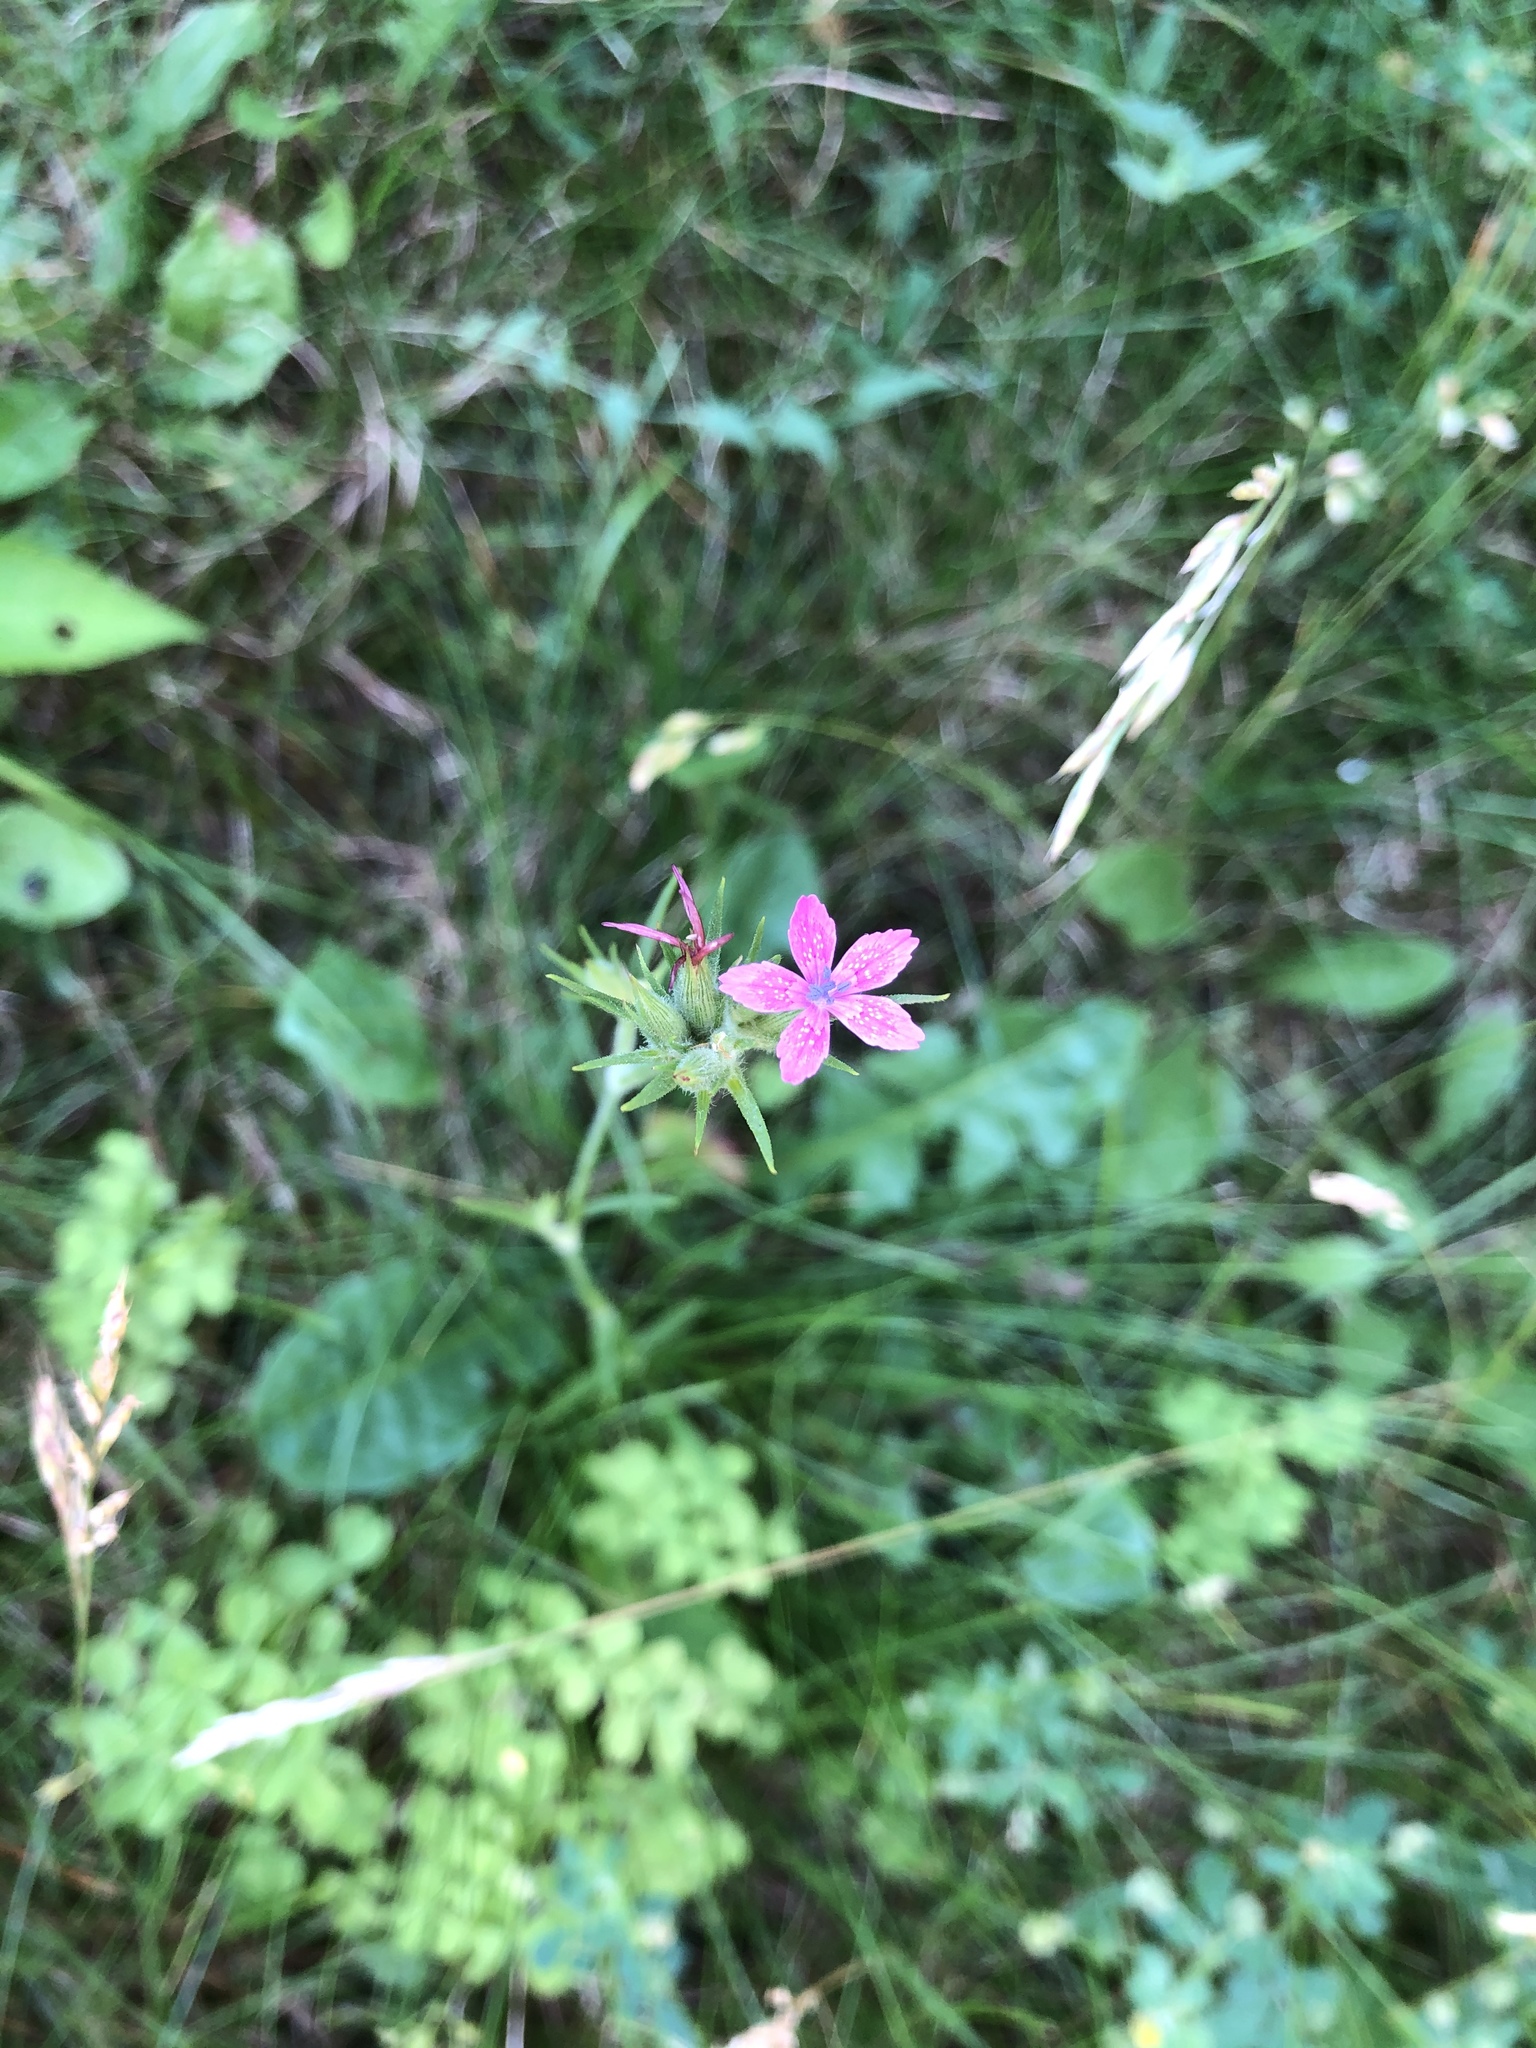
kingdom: Plantae
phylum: Tracheophyta
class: Magnoliopsida
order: Caryophyllales
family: Caryophyllaceae
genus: Dianthus
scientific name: Dianthus armeria
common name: Deptford pink
